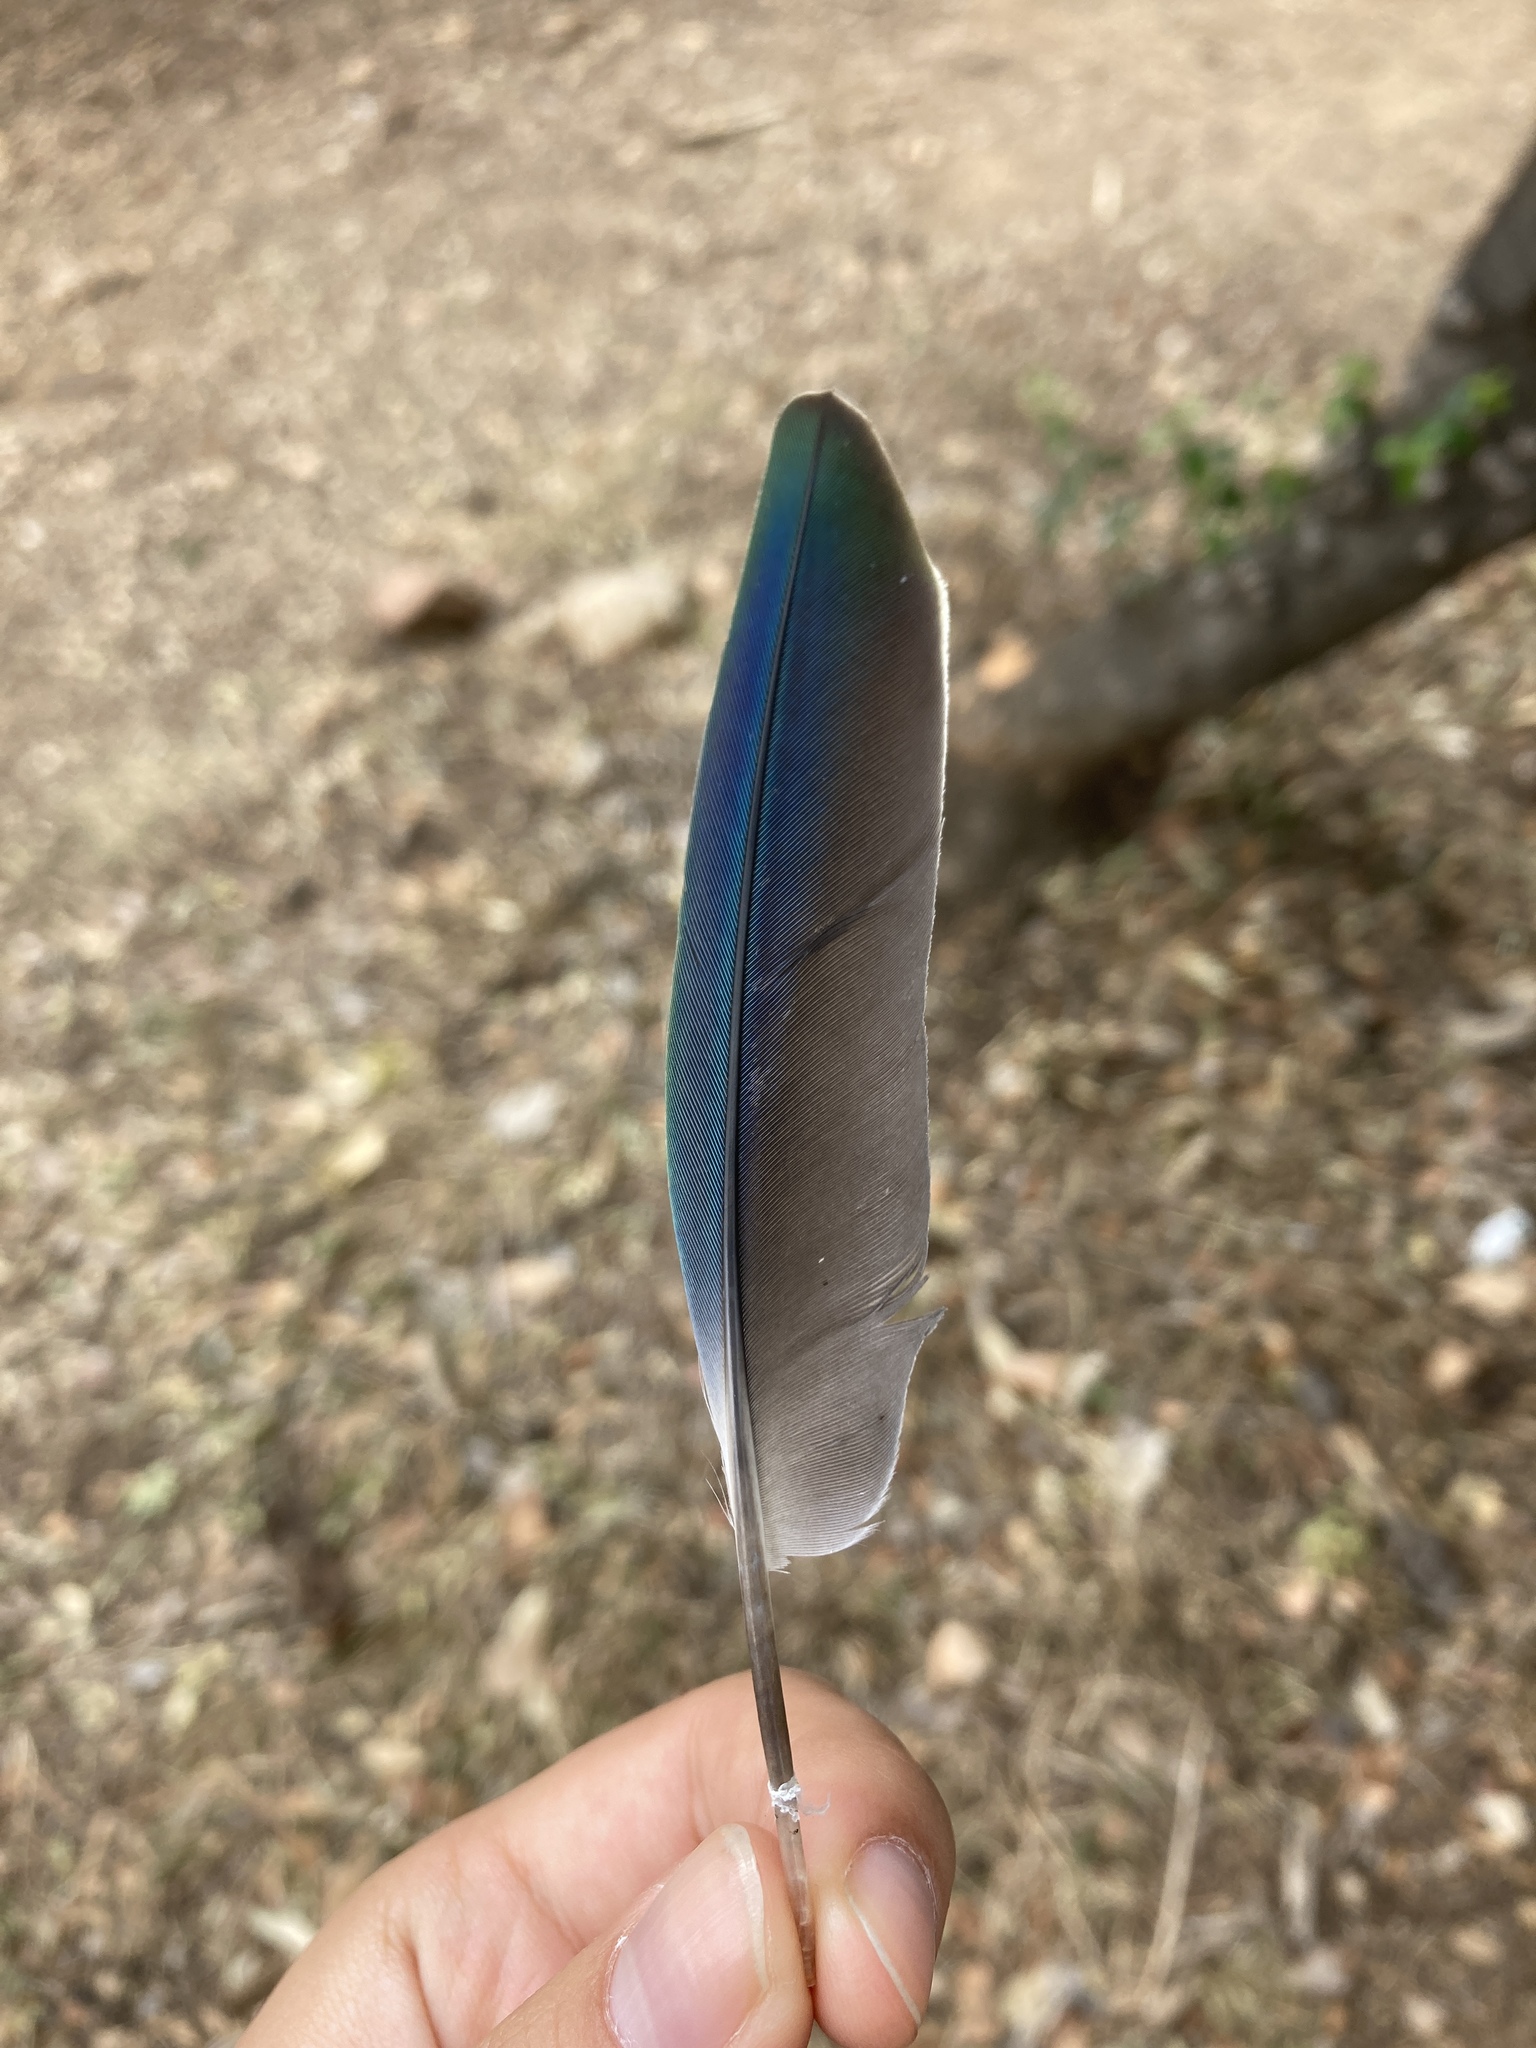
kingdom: Animalia
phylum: Chordata
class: Aves
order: Psittaciformes
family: Psittacidae
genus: Myiopsitta
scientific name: Myiopsitta monachus
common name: Monk parakeet
